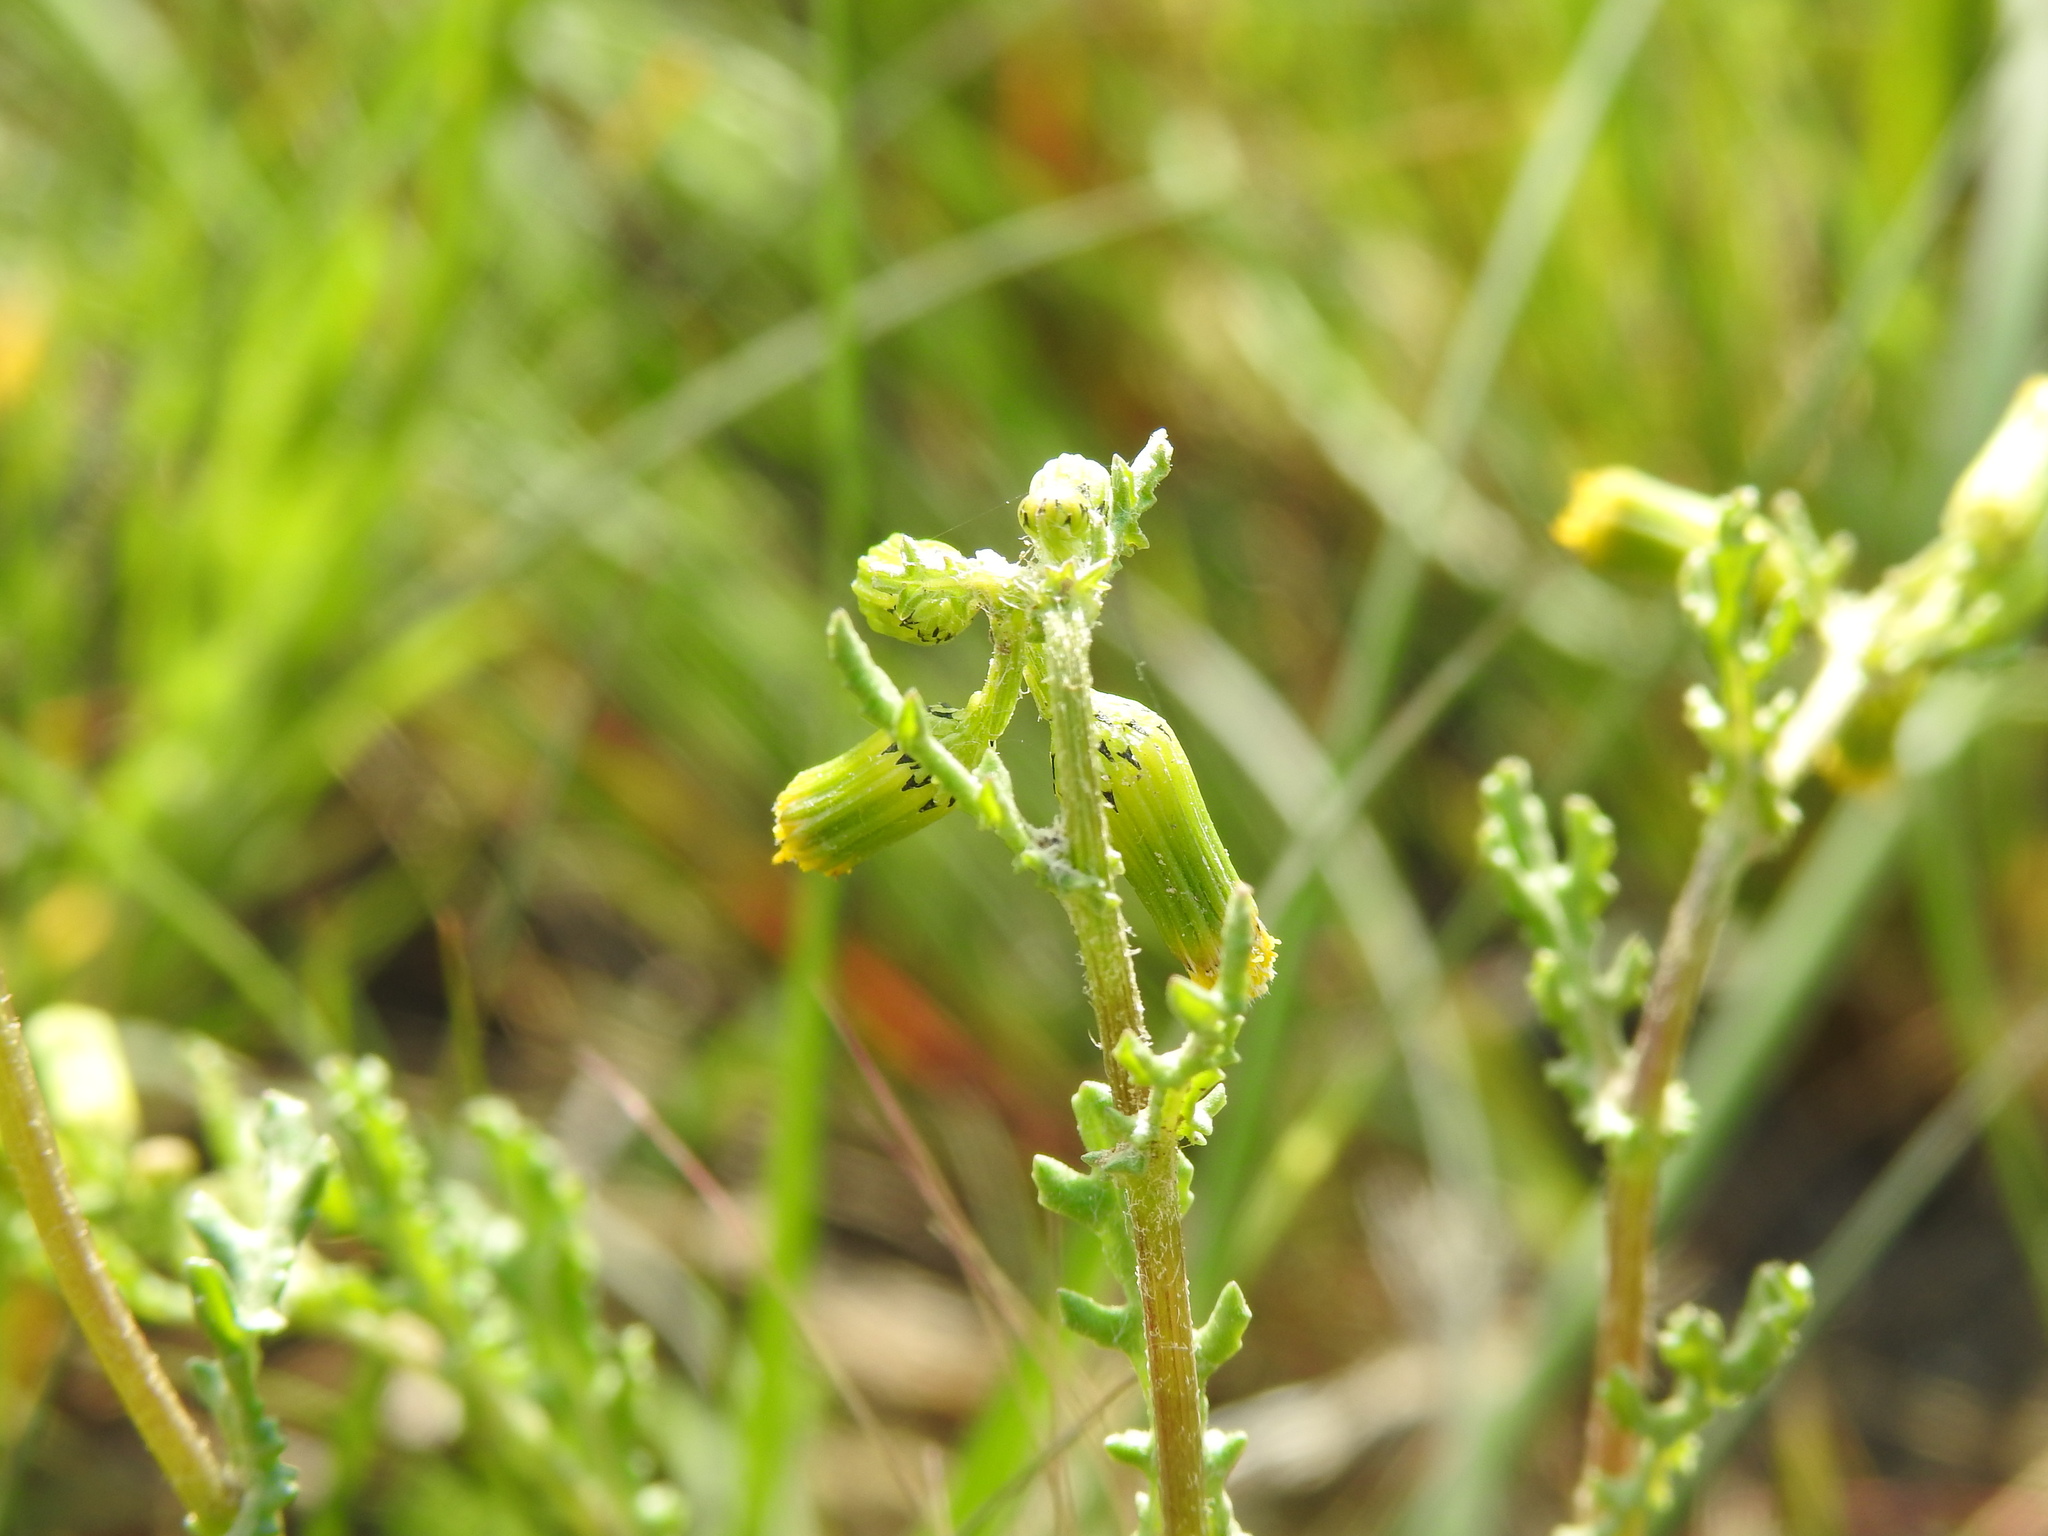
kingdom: Plantae
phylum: Tracheophyta
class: Magnoliopsida
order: Asterales
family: Asteraceae
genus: Senecio
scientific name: Senecio vulgaris
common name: Old-man-in-the-spring
